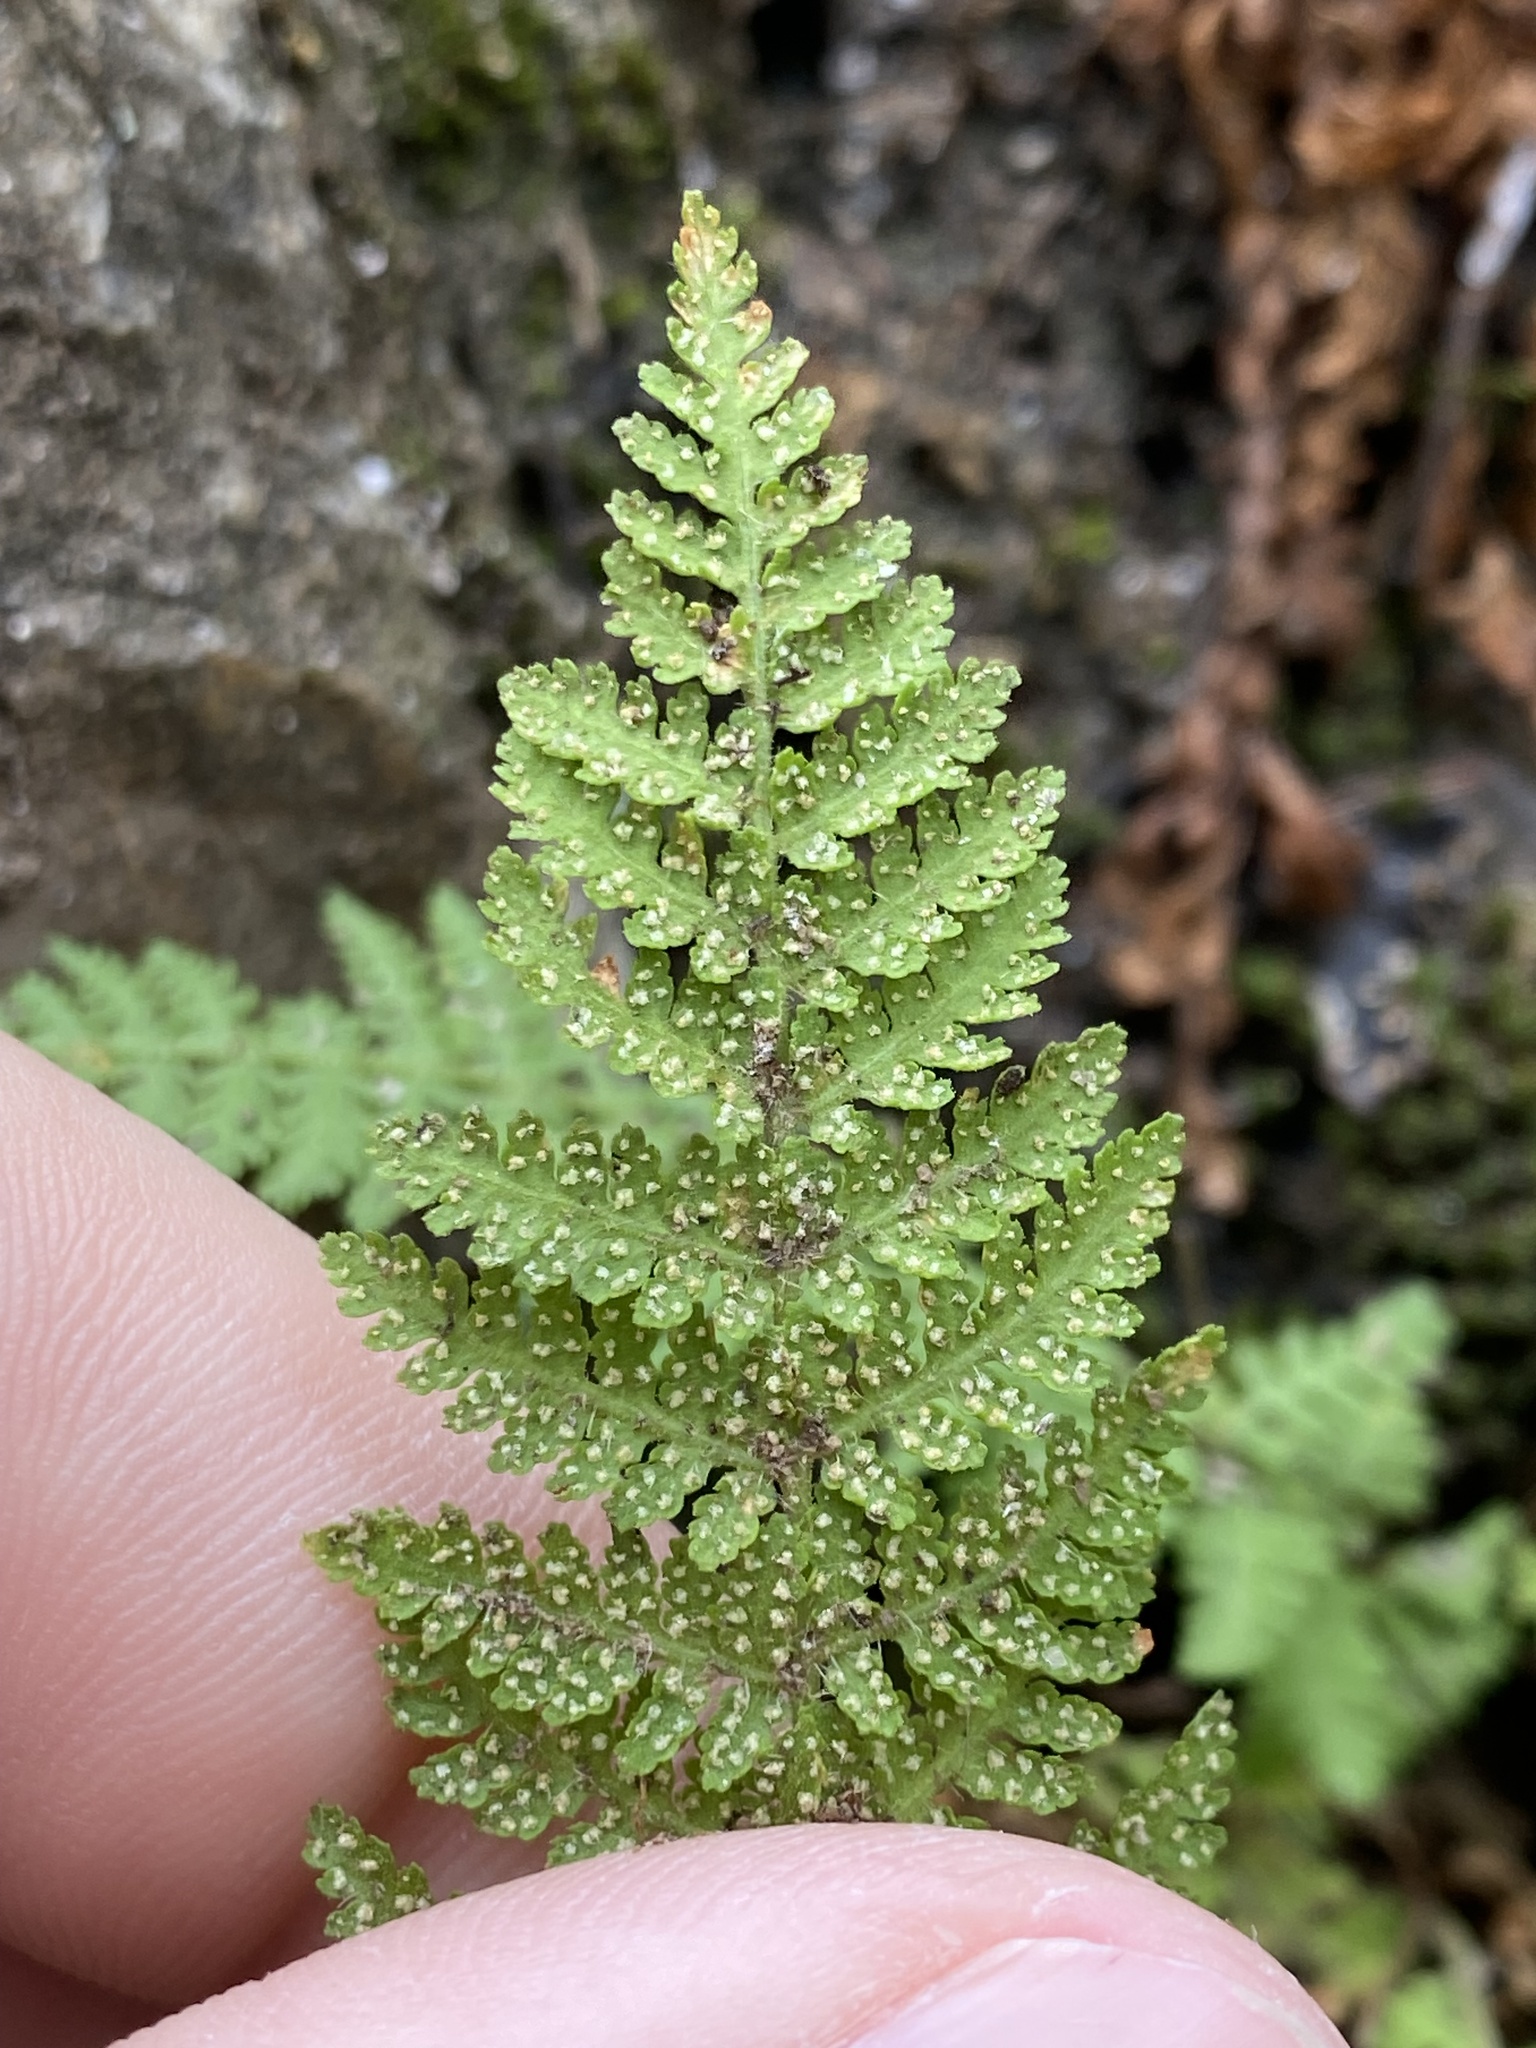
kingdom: Plantae
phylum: Tracheophyta
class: Polypodiopsida
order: Polypodiales
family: Woodsiaceae
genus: Physematium
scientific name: Physematium scopulinum
